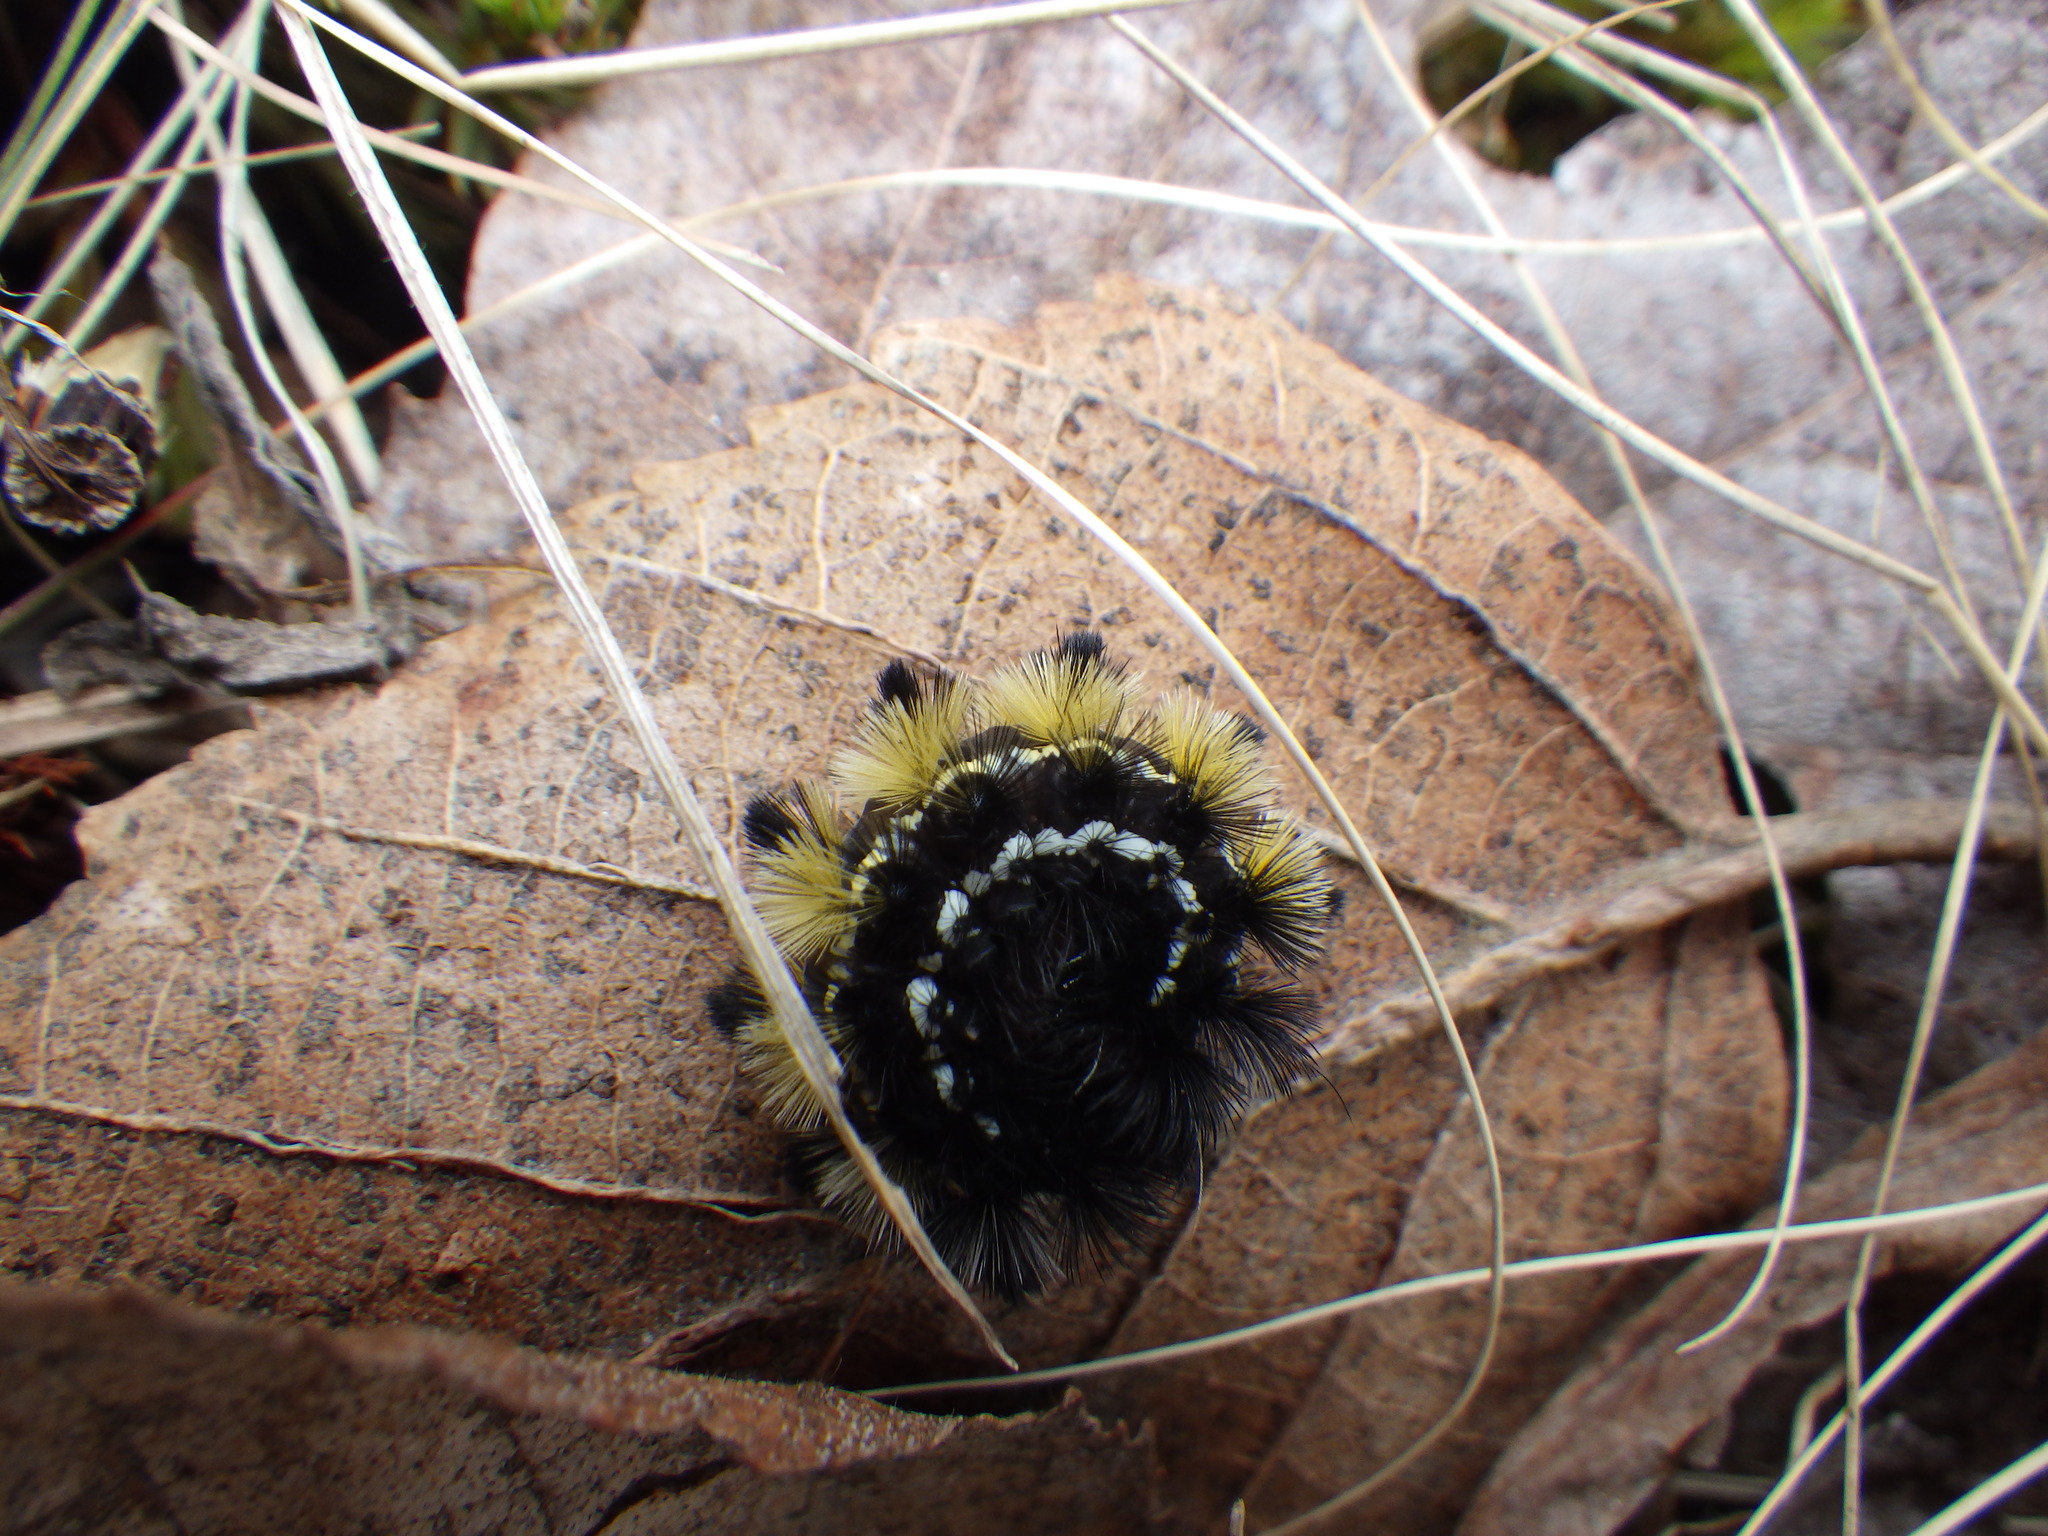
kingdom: Animalia
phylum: Arthropoda
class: Insecta
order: Lepidoptera
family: Erebidae
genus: Ctenucha
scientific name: Ctenucha virginica
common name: Virginia ctenucha moth
